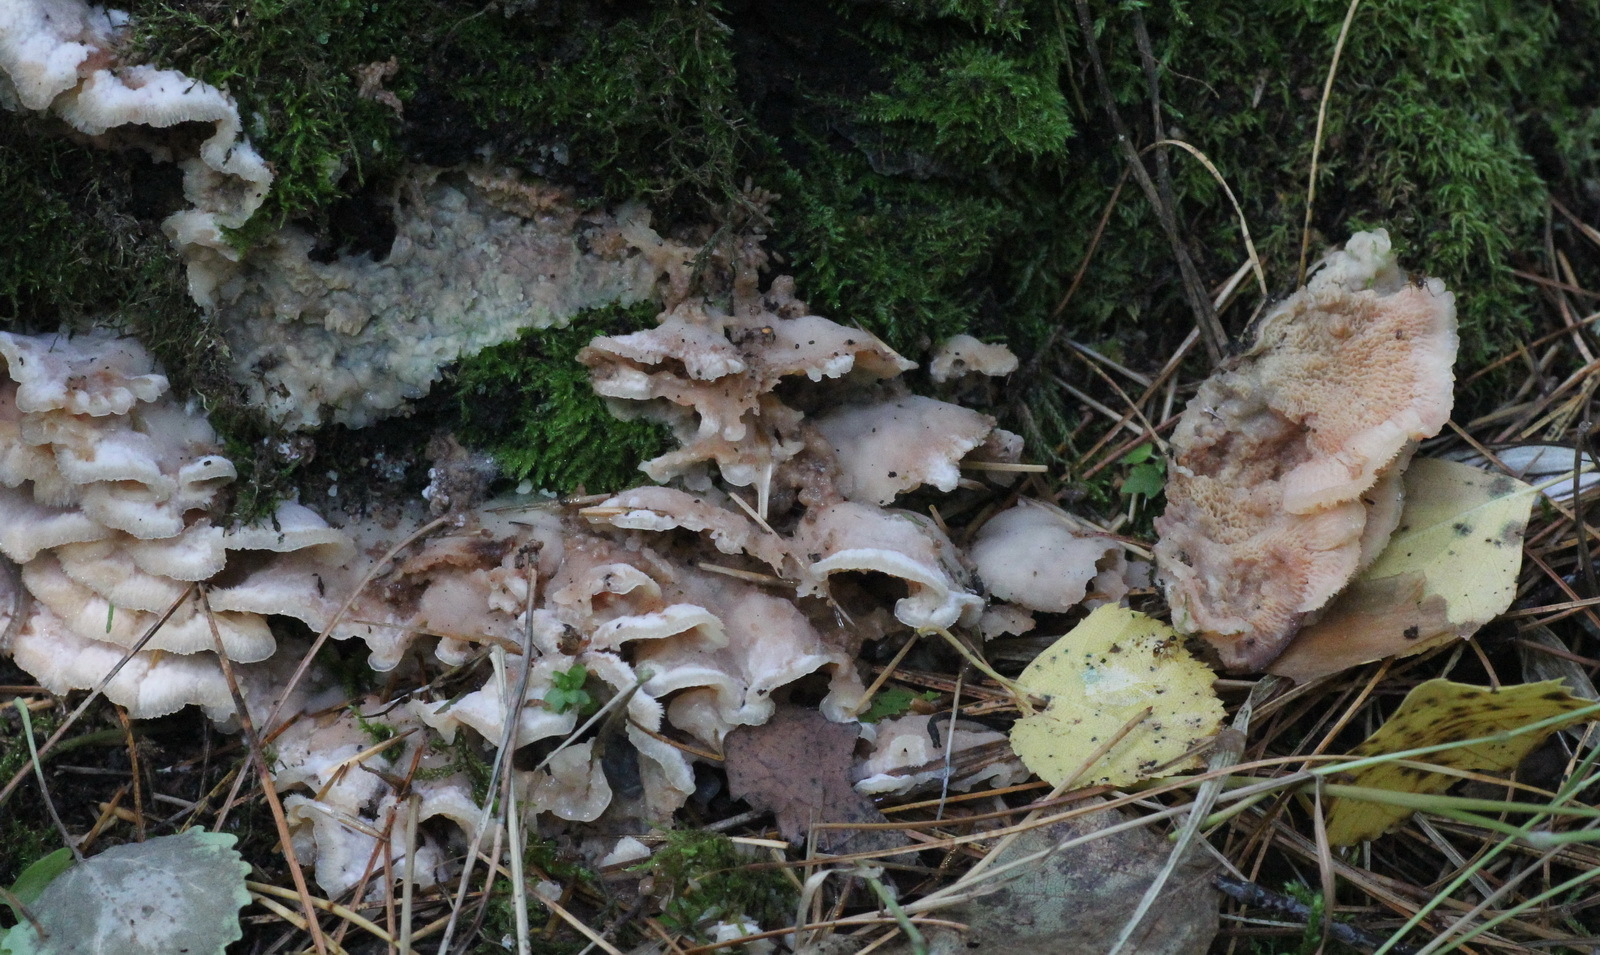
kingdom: Fungi
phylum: Basidiomycota
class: Agaricomycetes
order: Polyporales
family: Meruliaceae
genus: Phlebia
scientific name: Phlebia tremellosa
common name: Jelly rot
